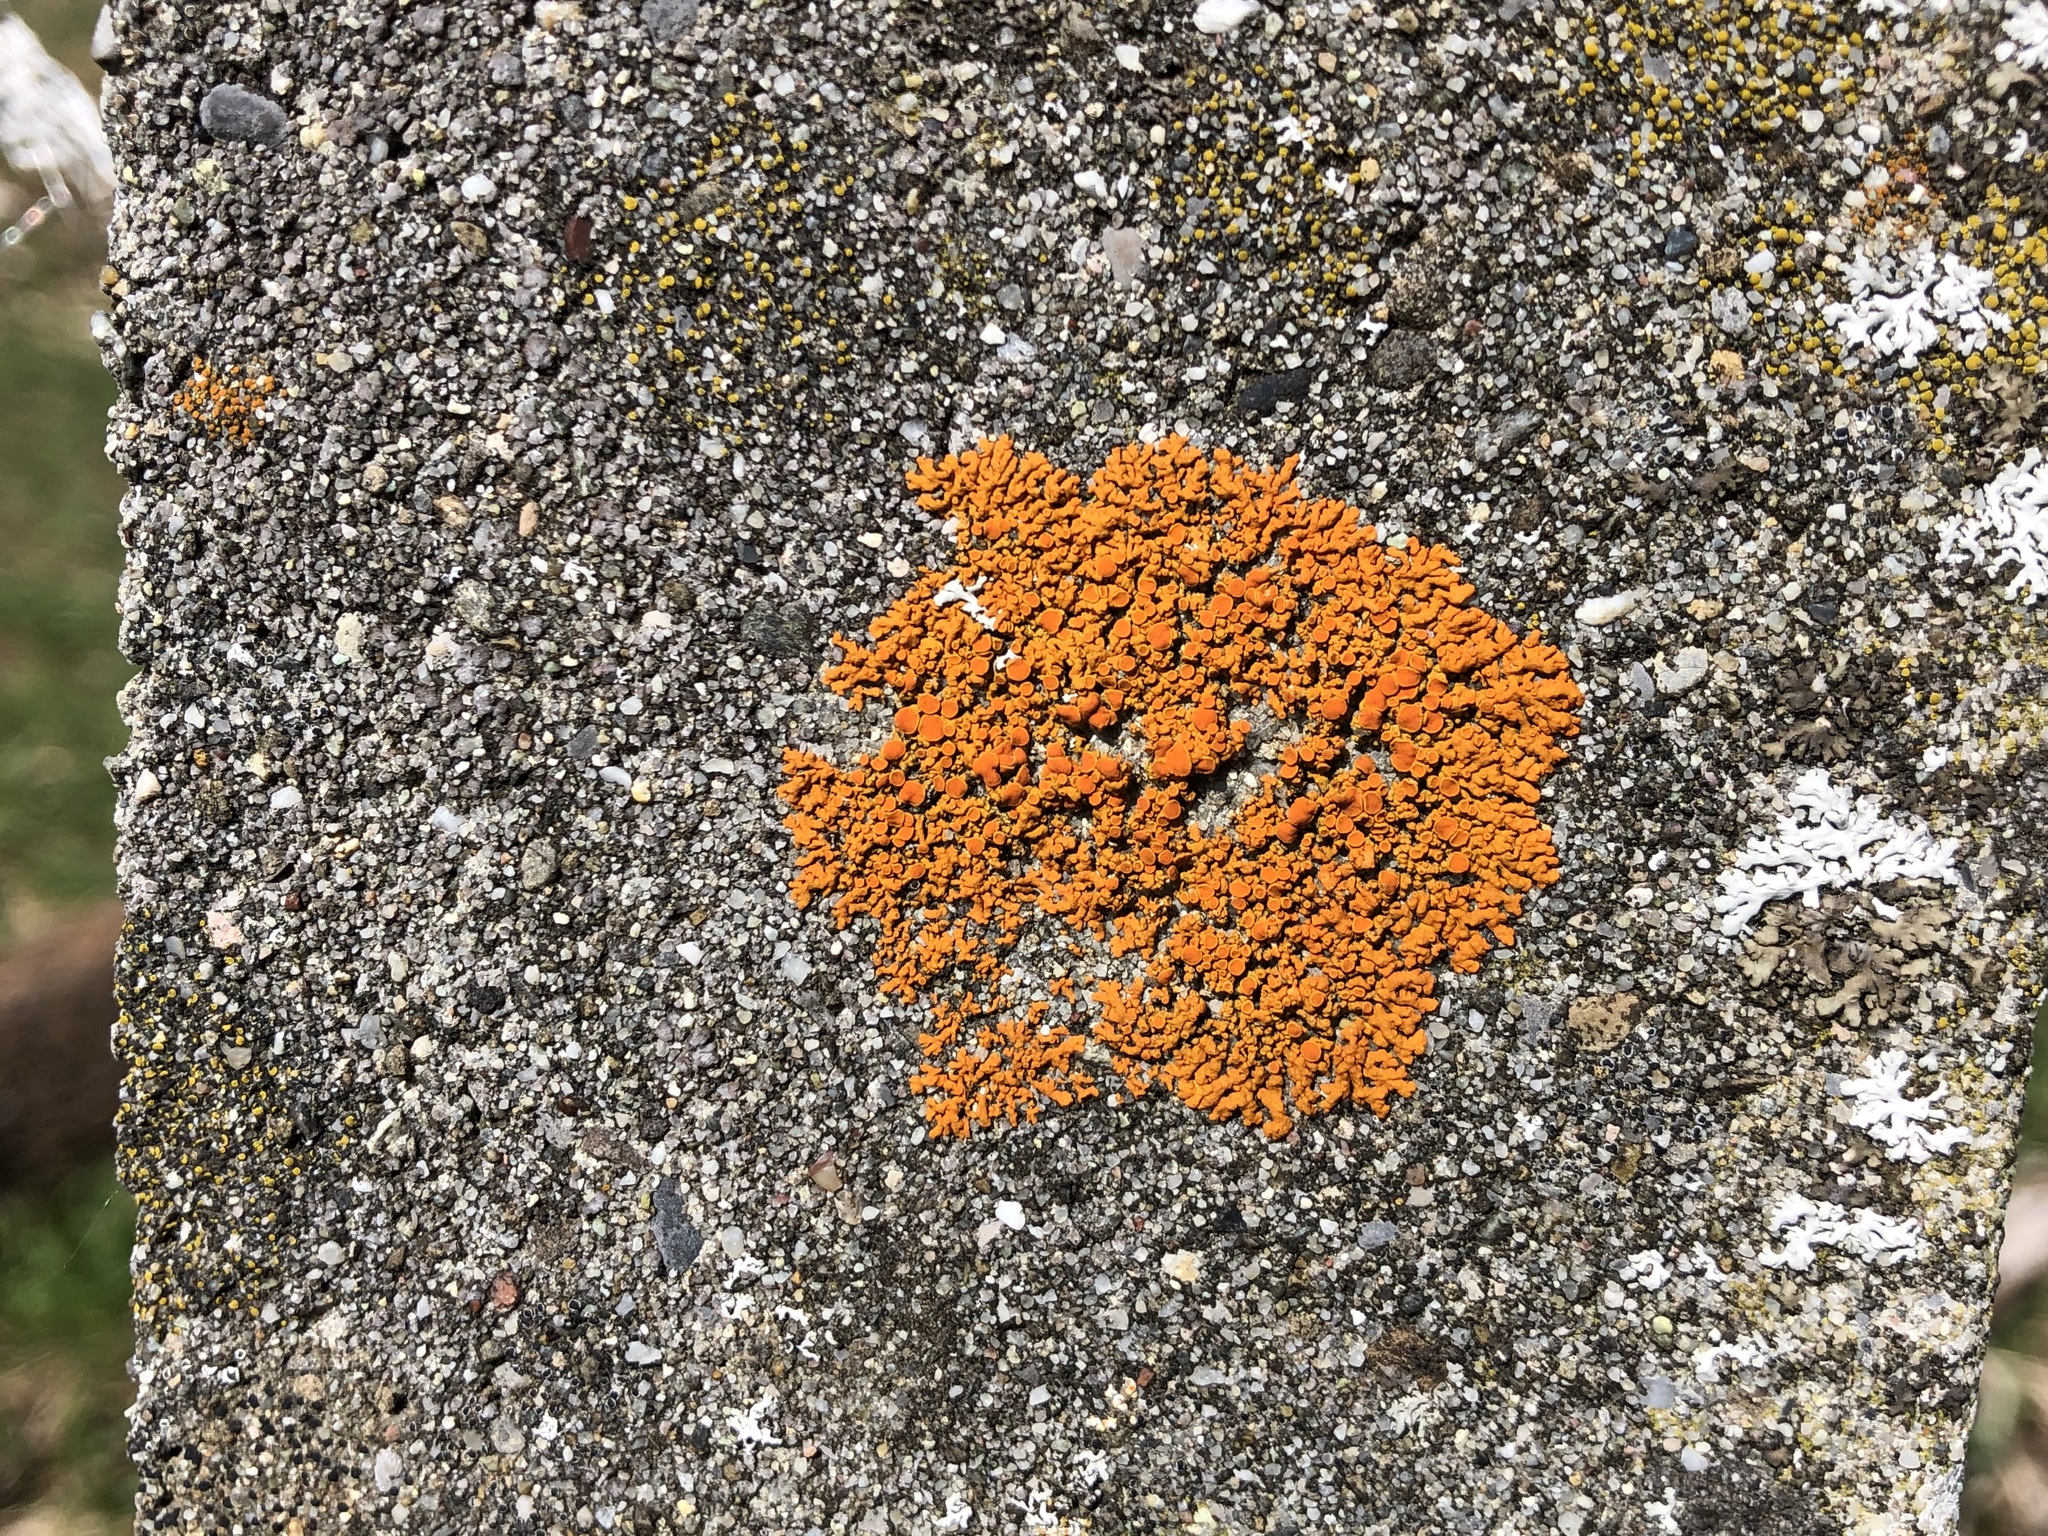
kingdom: Fungi
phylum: Ascomycota
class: Lecanoromycetes
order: Teloschistales
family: Teloschistaceae
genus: Xanthoria
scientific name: Xanthoria elegans
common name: Elegant sunburst lichen
